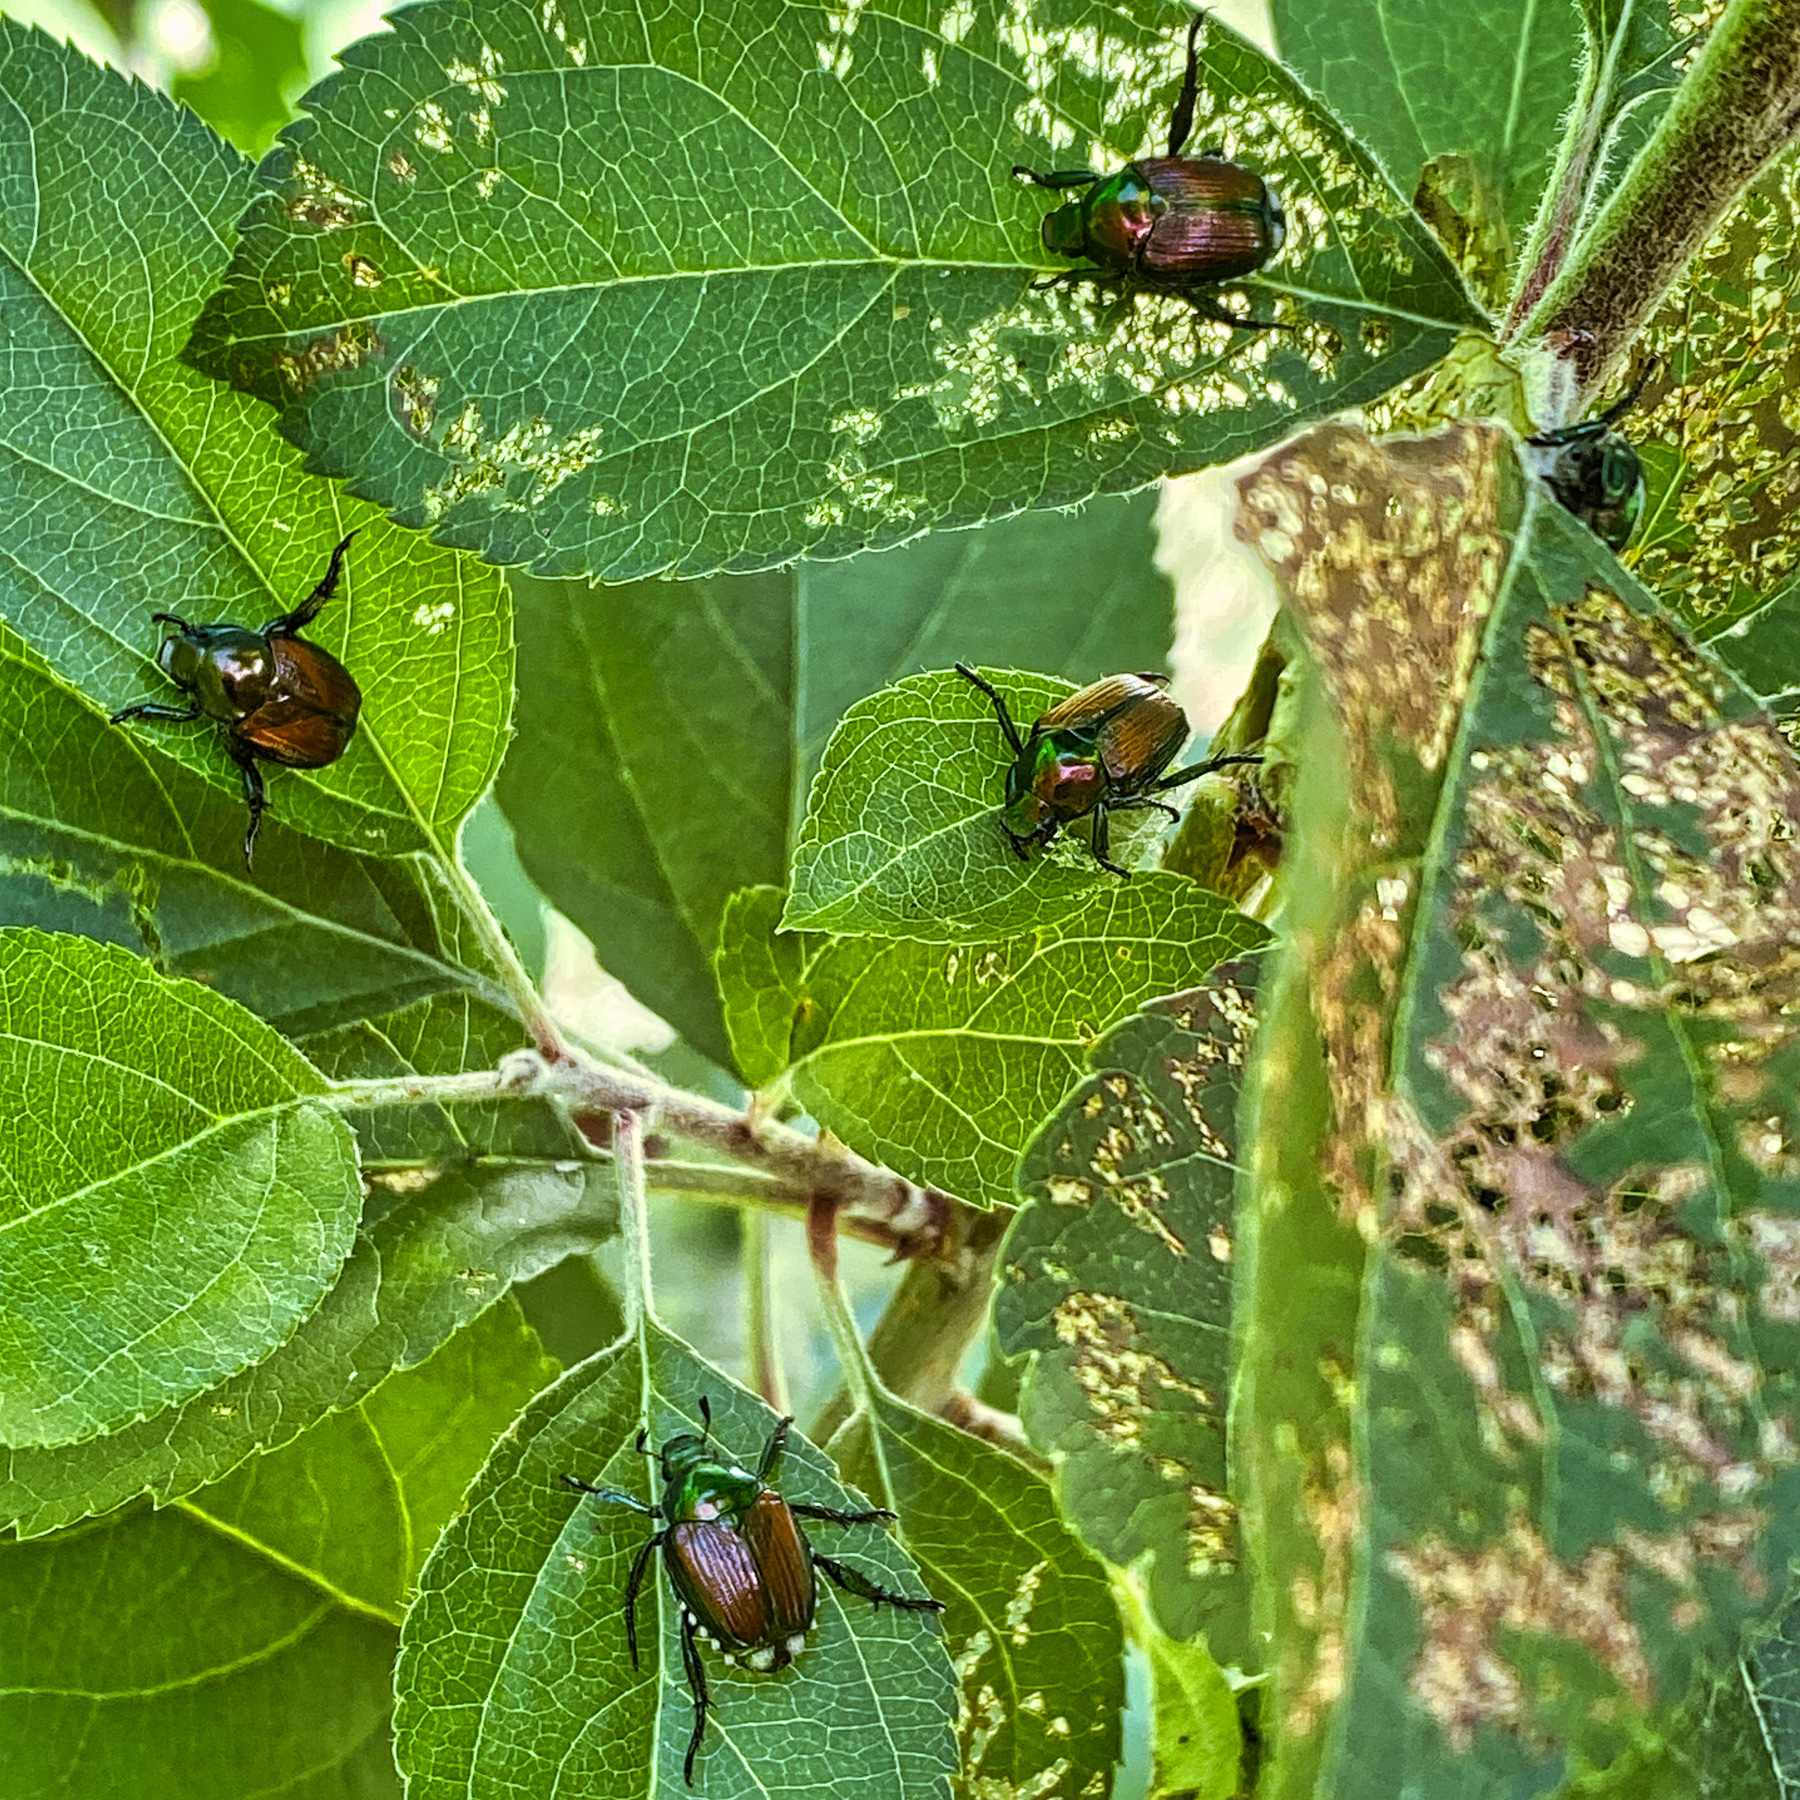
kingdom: Animalia
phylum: Arthropoda
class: Insecta
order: Coleoptera
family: Scarabaeidae
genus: Popillia
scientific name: Popillia japonica
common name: Japanese beetle
